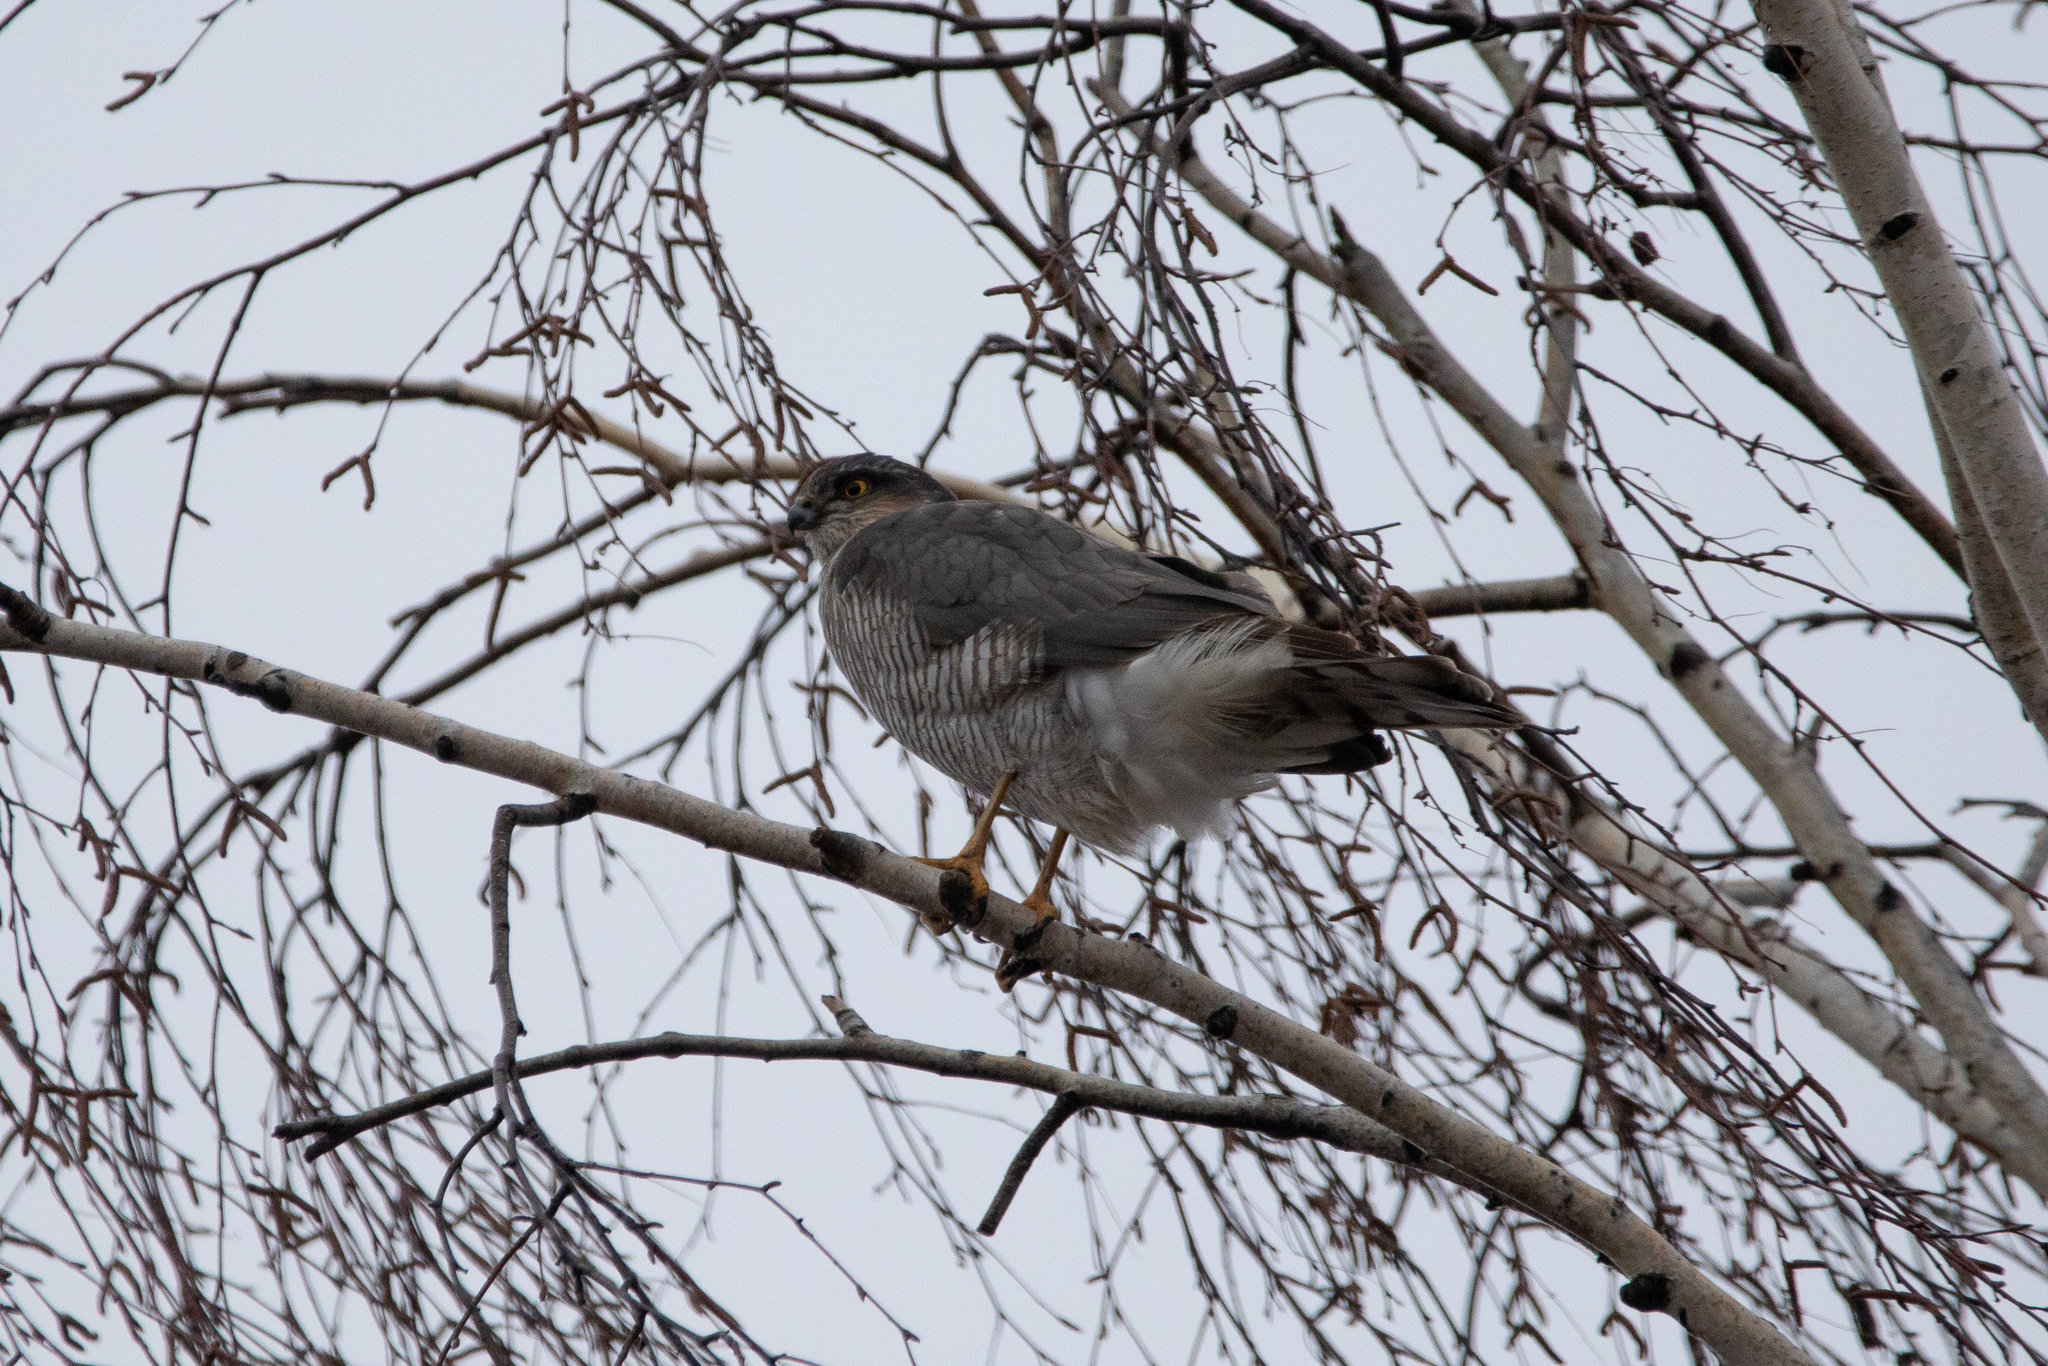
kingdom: Animalia
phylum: Chordata
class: Aves
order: Accipitriformes
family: Accipitridae
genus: Accipiter
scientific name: Accipiter nisus
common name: Eurasian sparrowhawk
